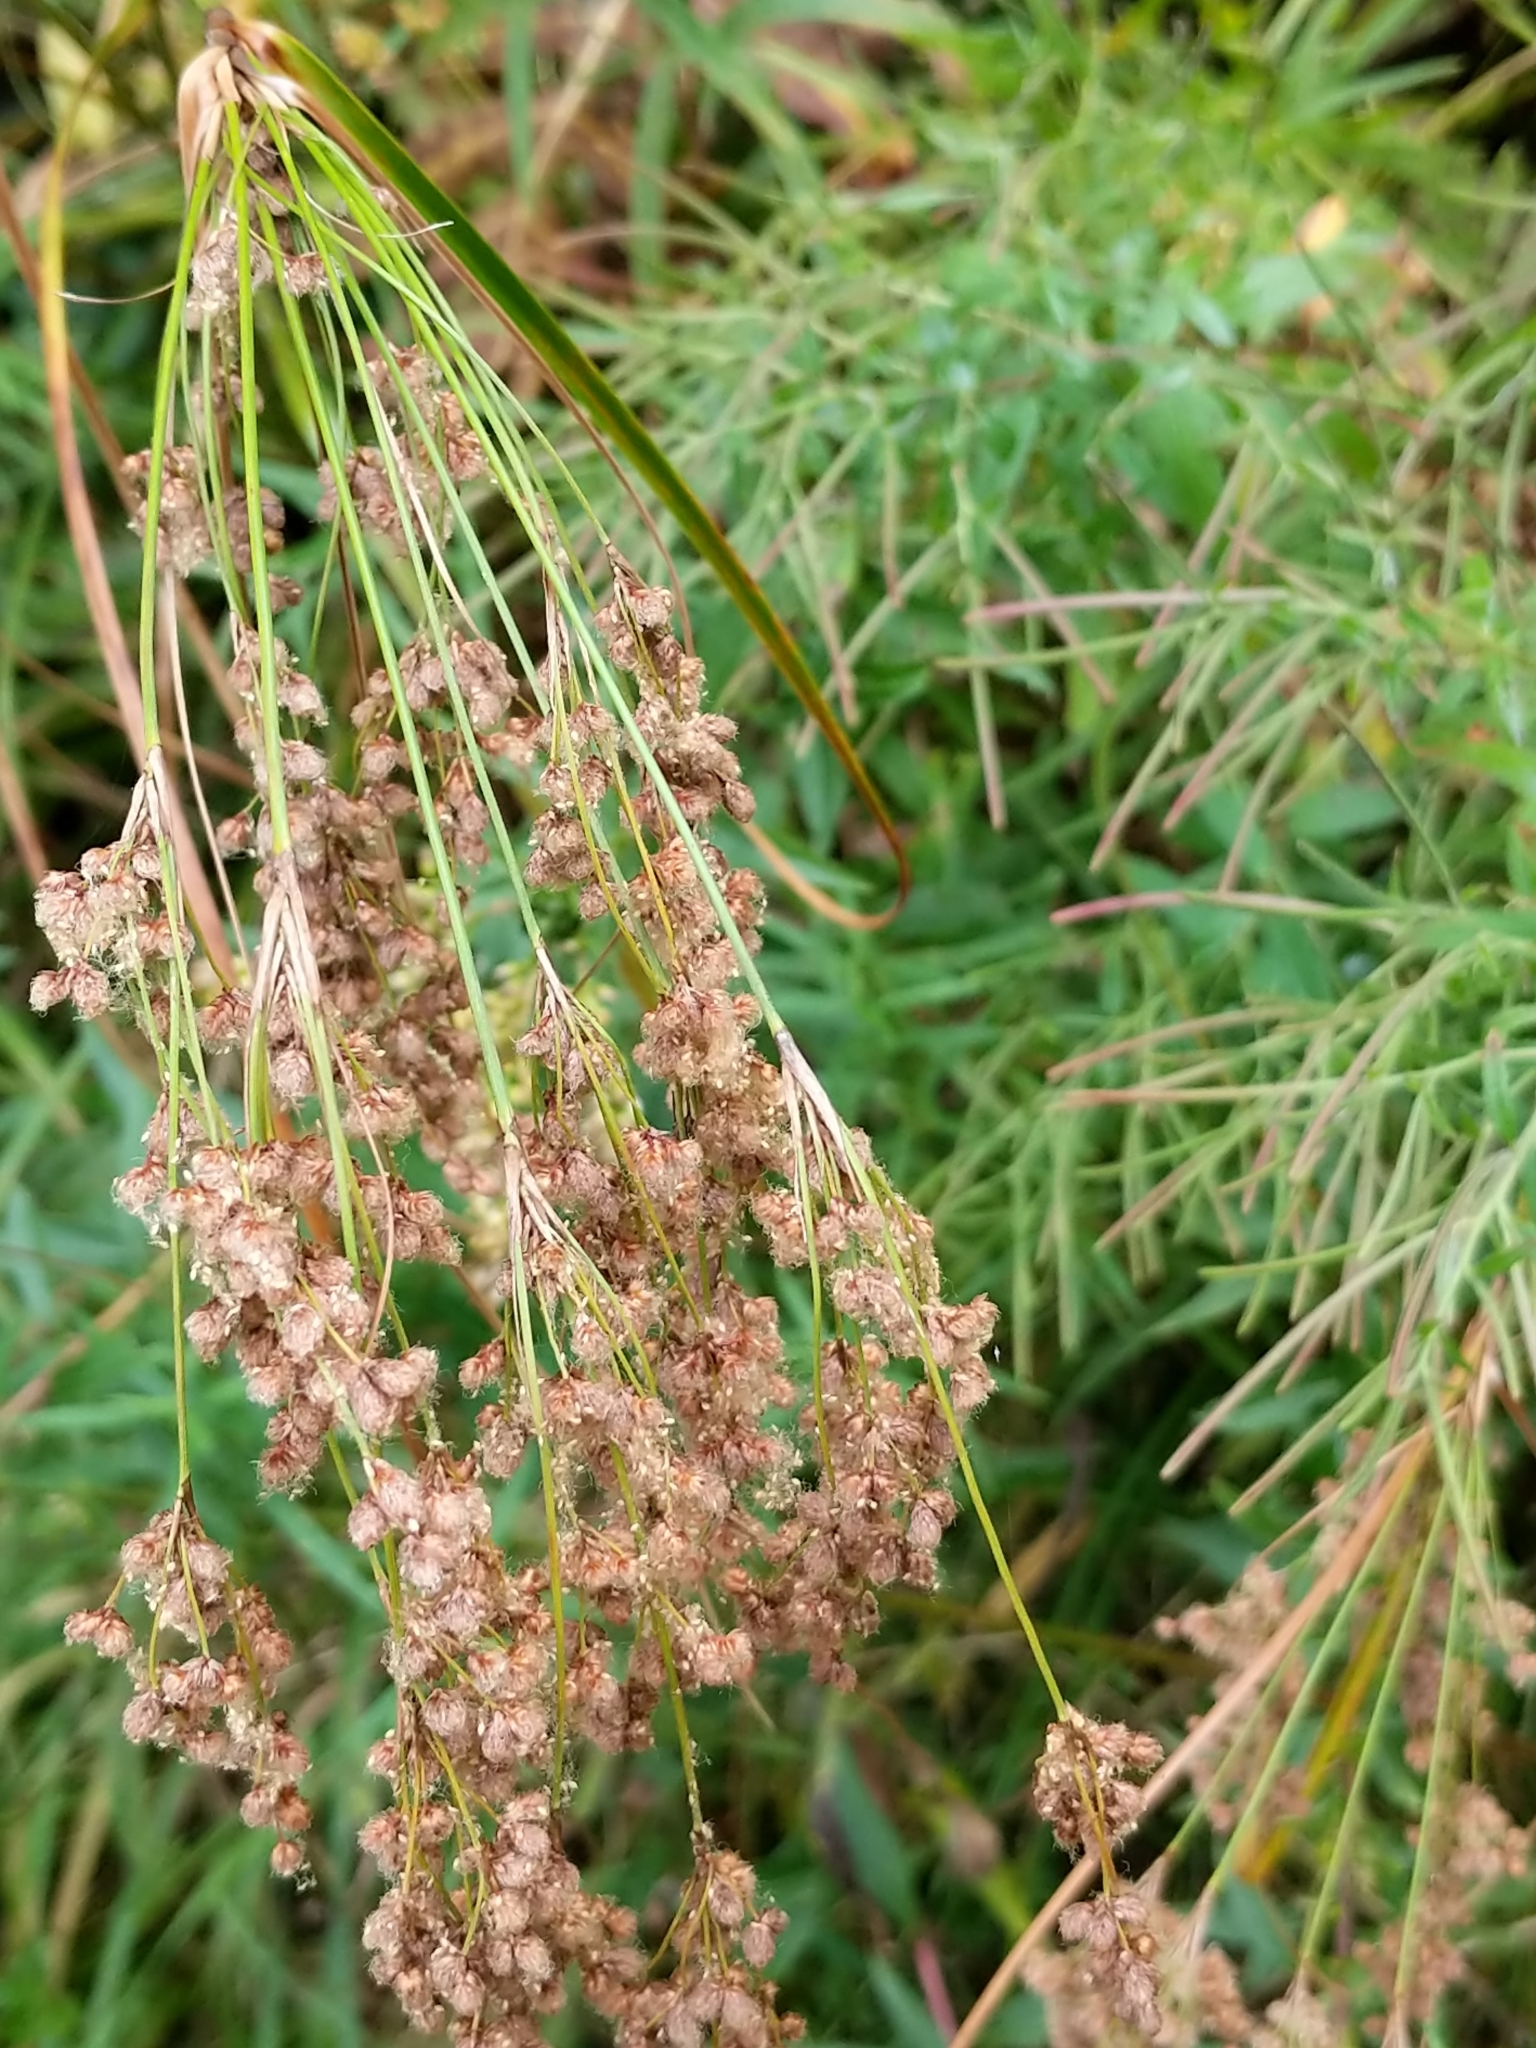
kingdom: Plantae
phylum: Tracheophyta
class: Liliopsida
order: Poales
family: Cyperaceae
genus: Scirpus
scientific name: Scirpus cyperinus
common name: Black-sheathed bulrush
